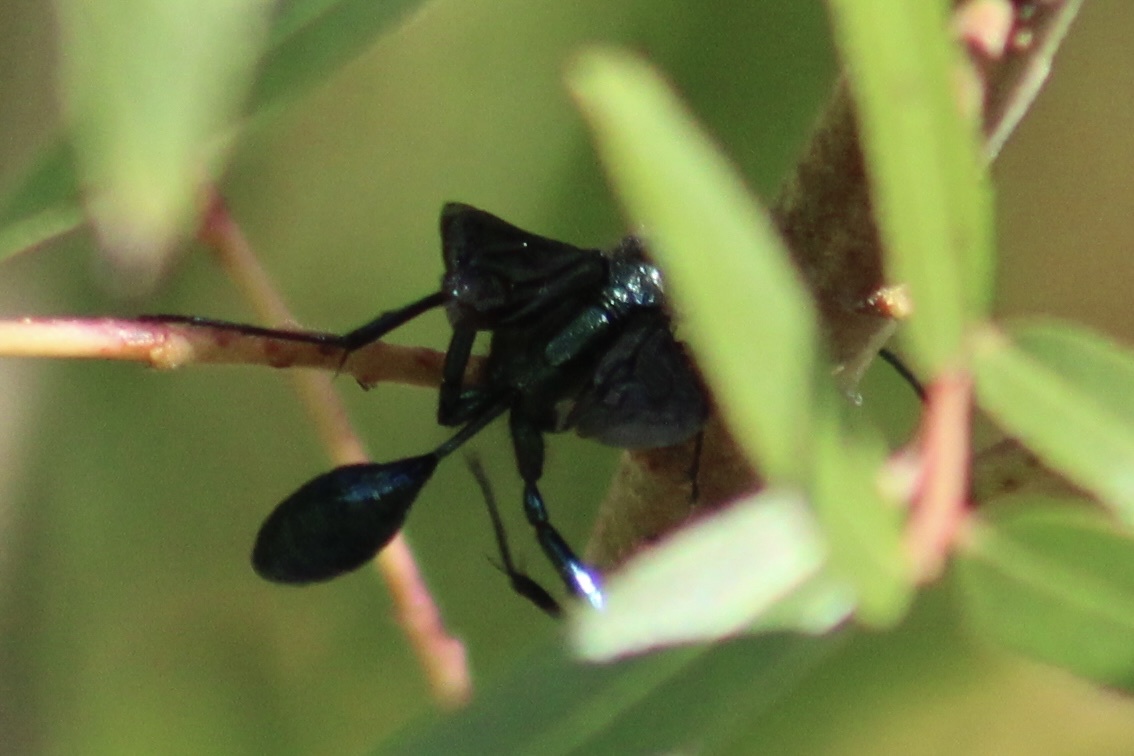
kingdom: Animalia
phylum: Arthropoda
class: Insecta
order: Hymenoptera
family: Sphecidae
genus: Chalybion
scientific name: Chalybion californicum
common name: Mud dauber
